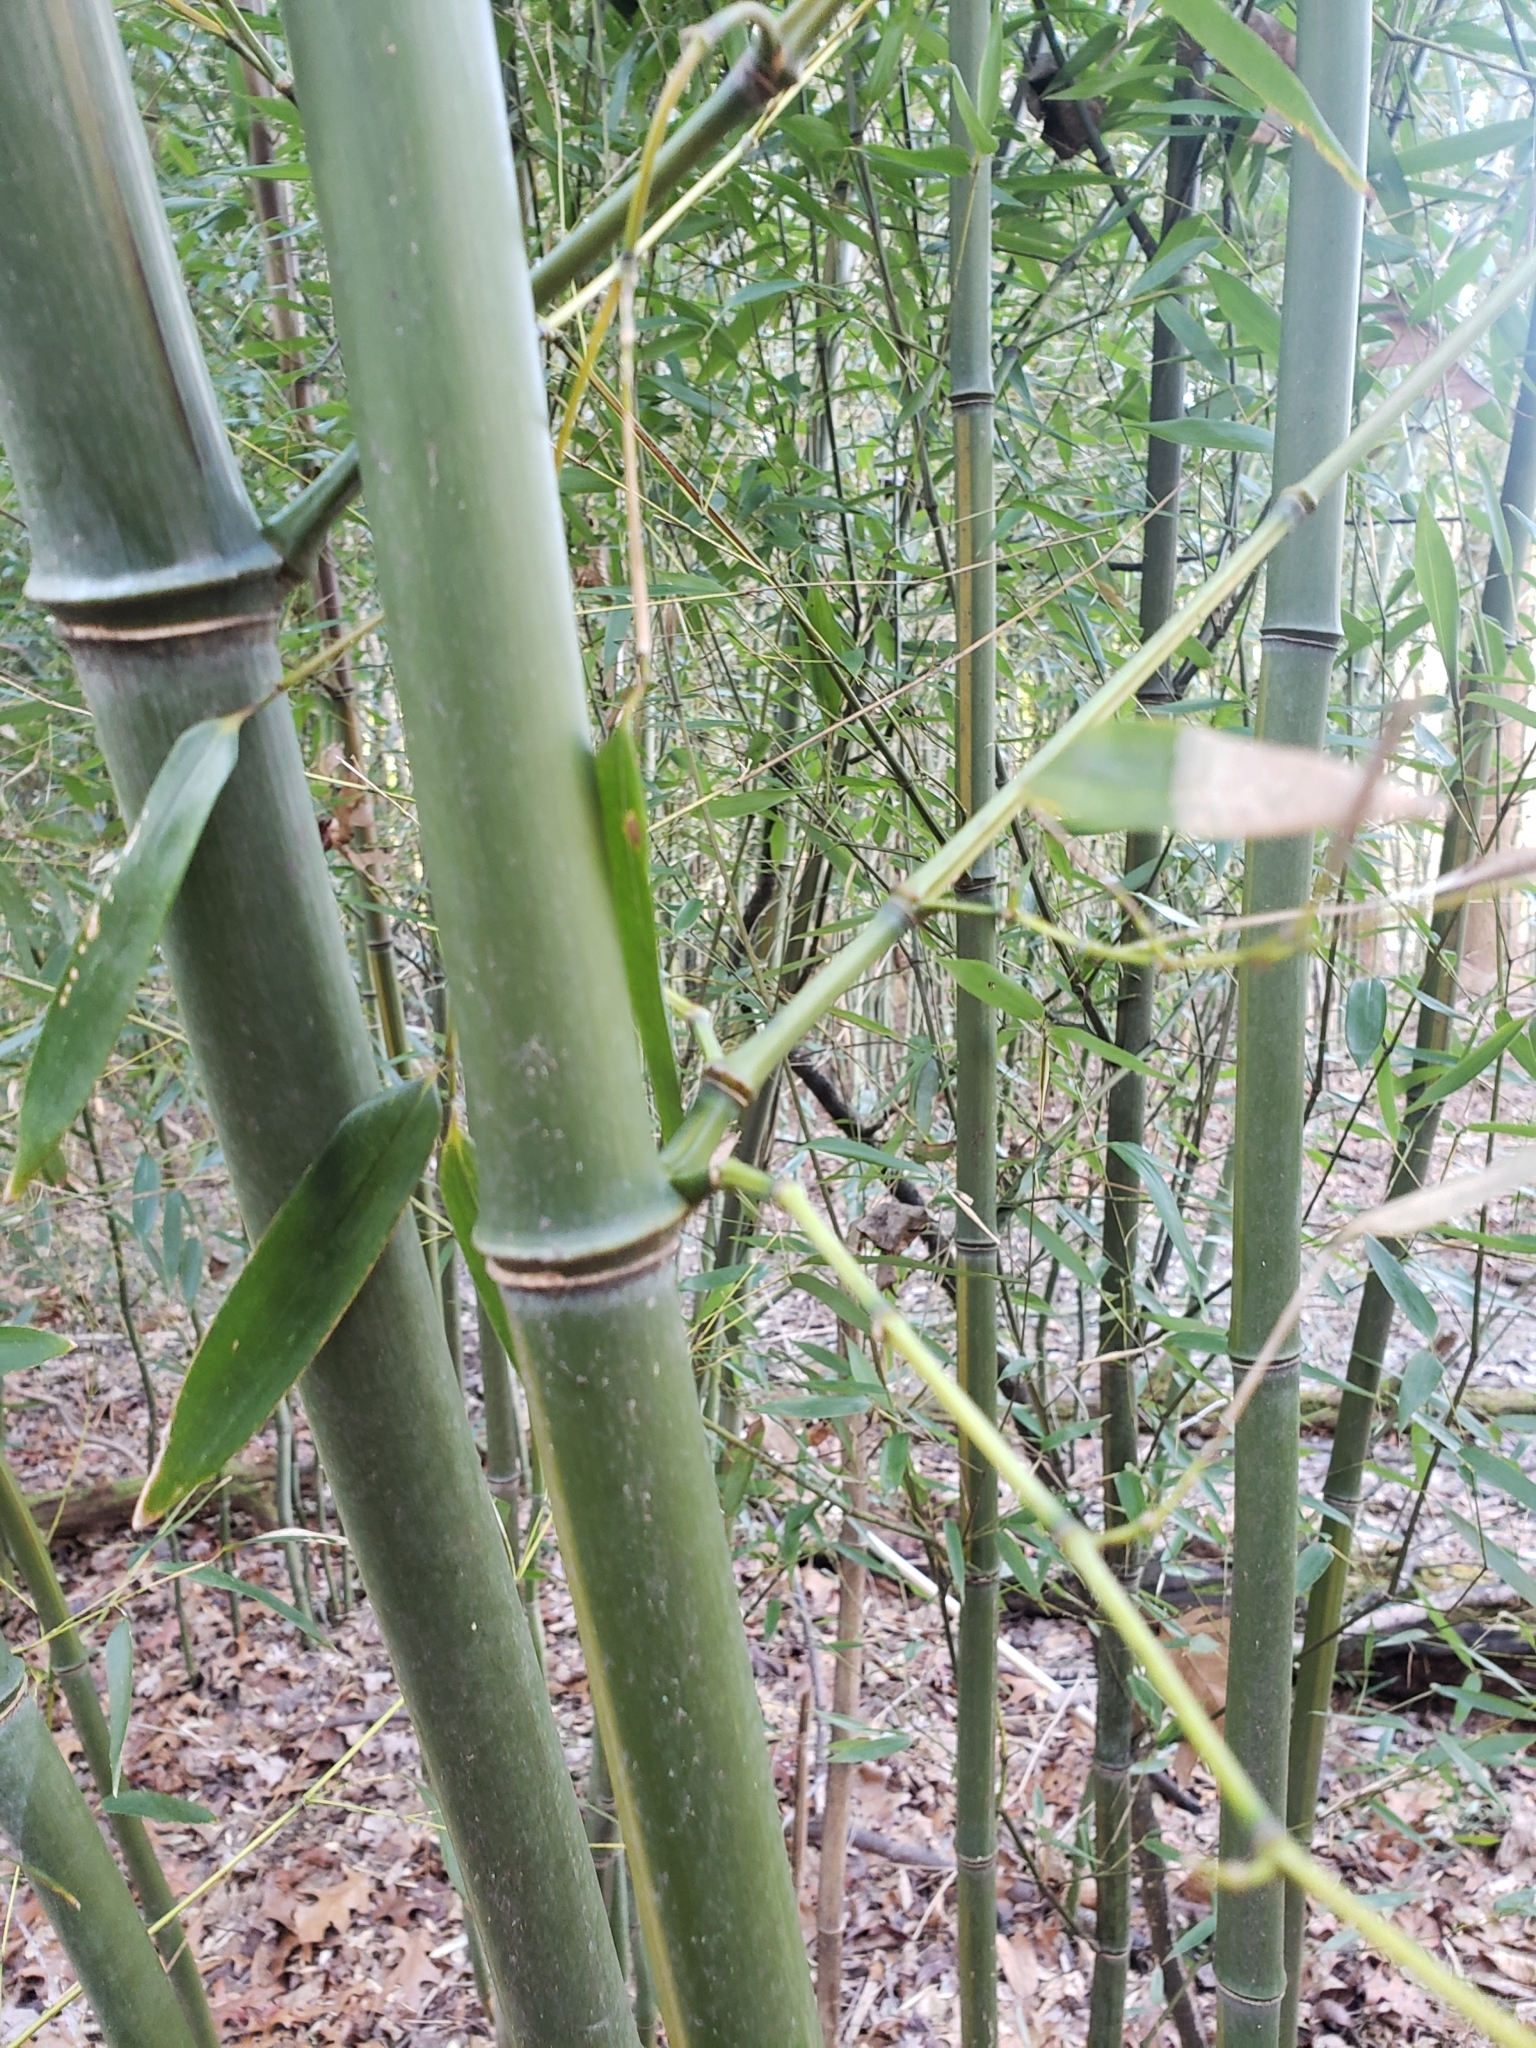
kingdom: Plantae
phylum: Tracheophyta
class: Liliopsida
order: Poales
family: Poaceae
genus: Phyllostachys
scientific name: Phyllostachys aureosulcata
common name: Yellow groove bamboo
